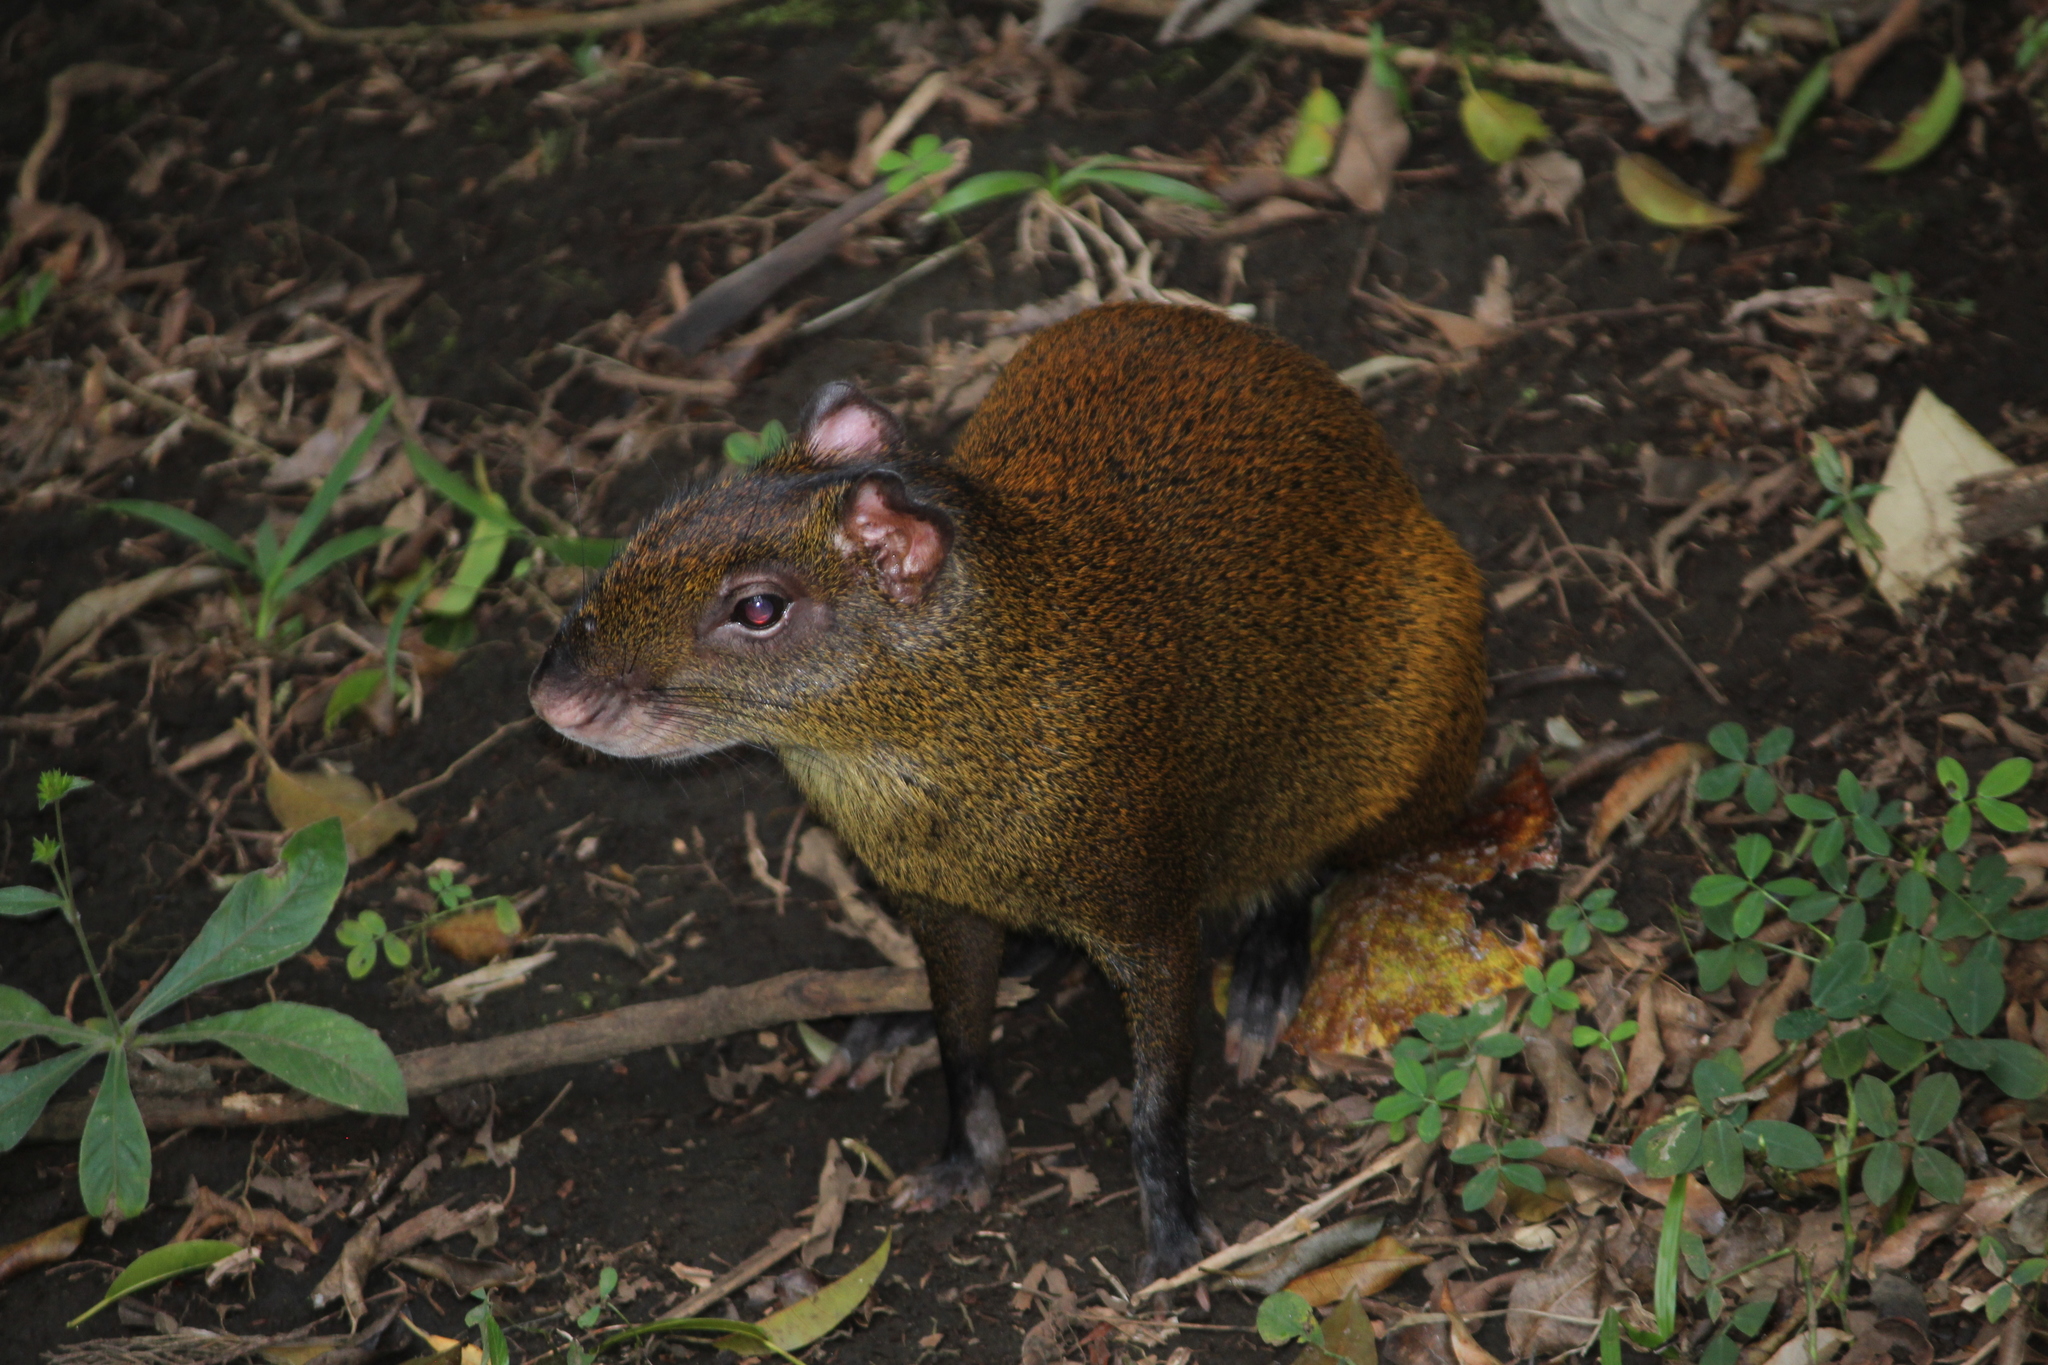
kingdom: Animalia
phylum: Chordata
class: Mammalia
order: Rodentia
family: Dasyproctidae
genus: Dasyprocta
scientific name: Dasyprocta punctata
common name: Central american agouti
